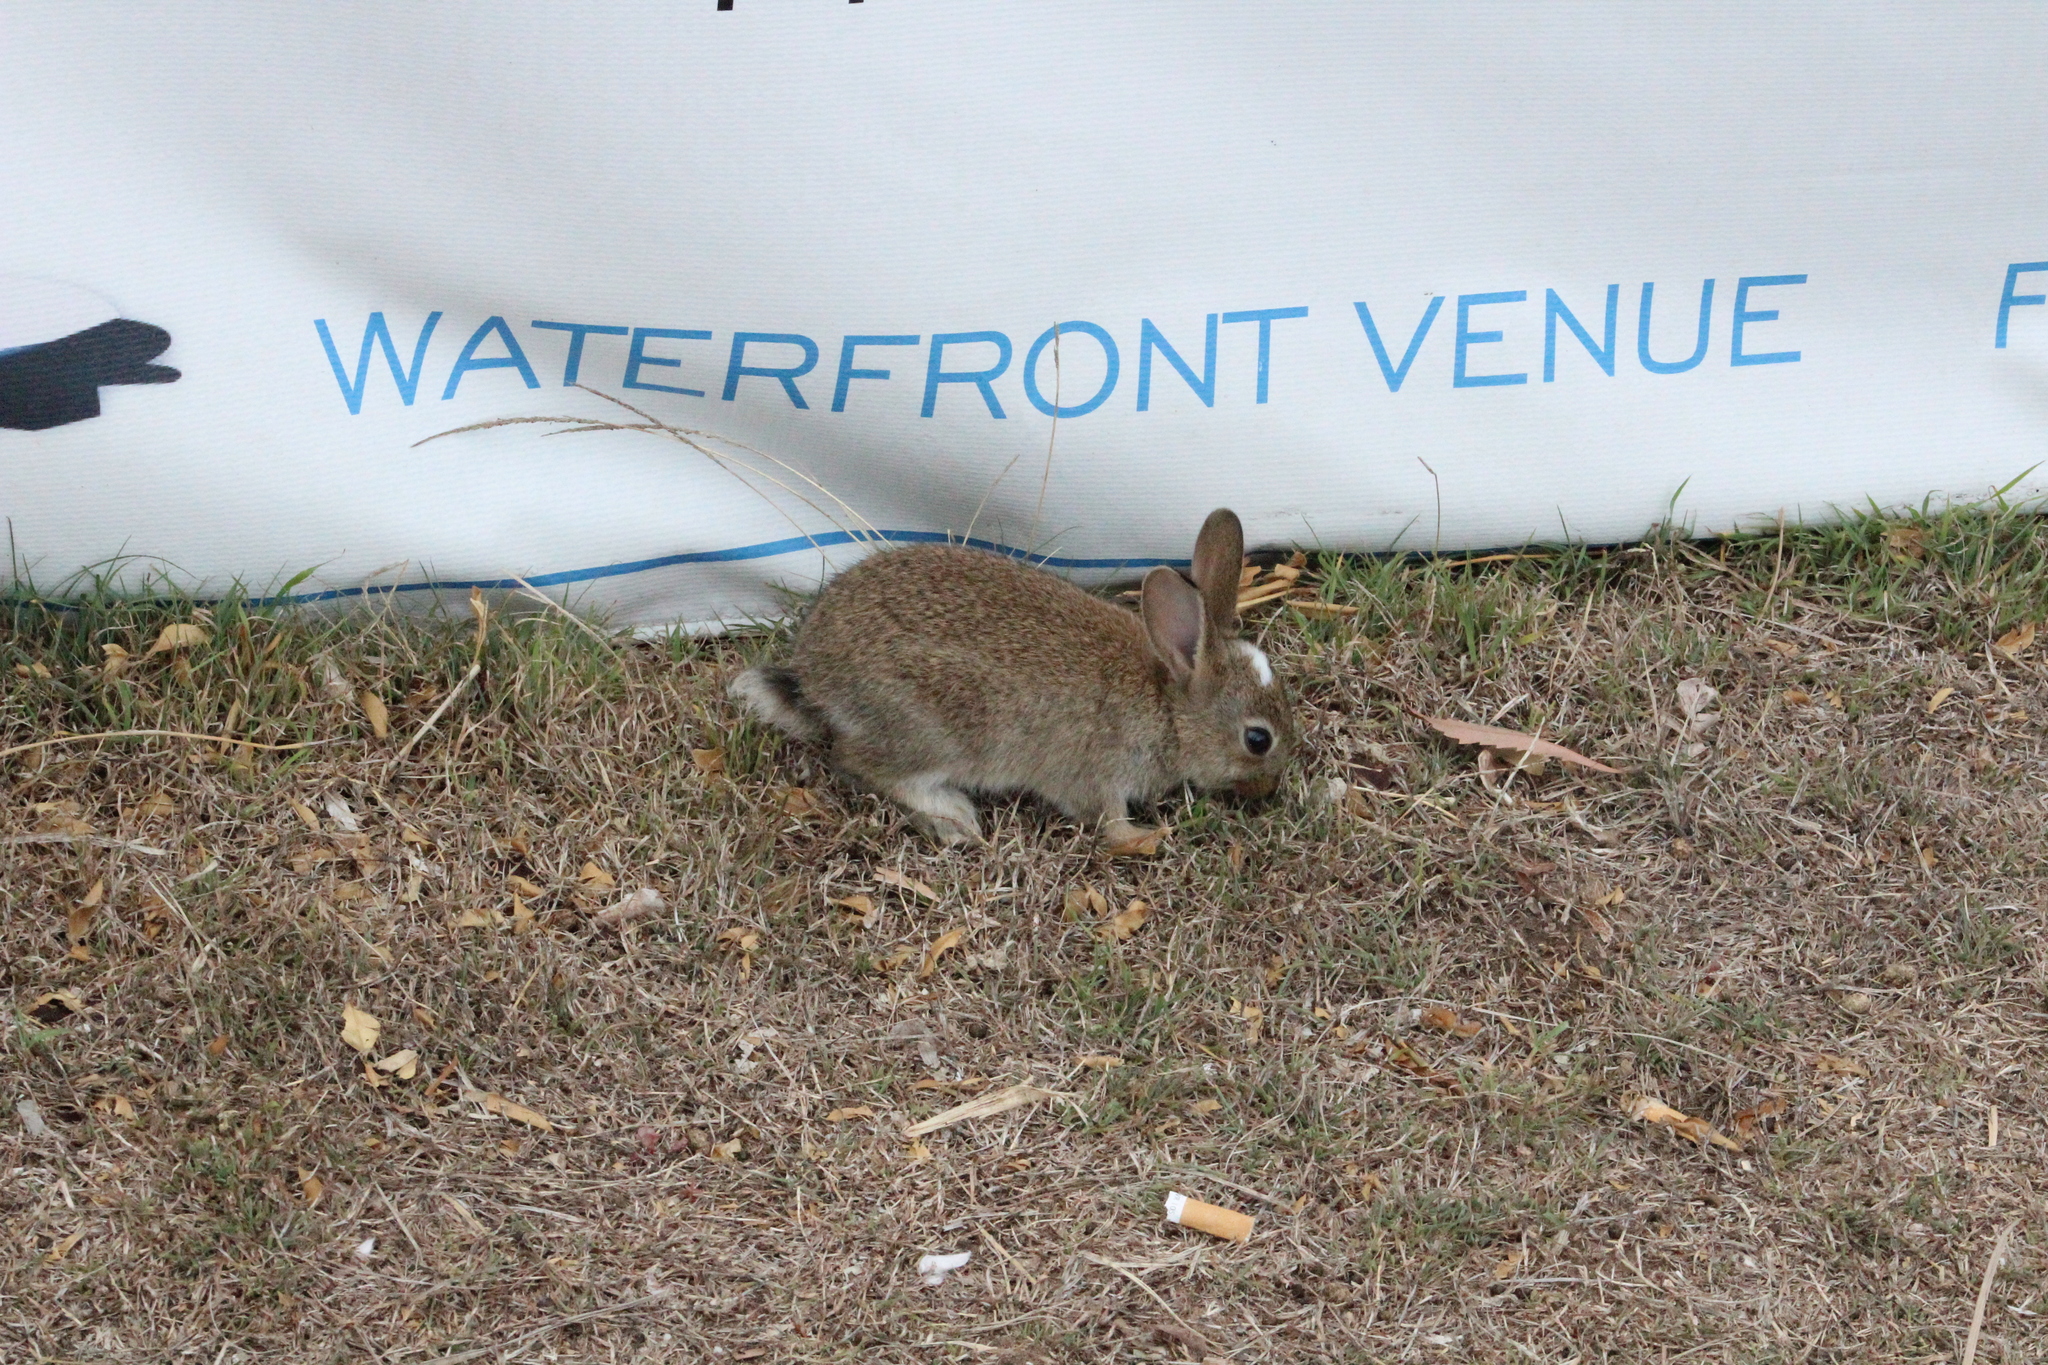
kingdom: Animalia
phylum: Chordata
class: Mammalia
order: Lagomorpha
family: Leporidae
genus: Oryctolagus
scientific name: Oryctolagus cuniculus
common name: European rabbit
